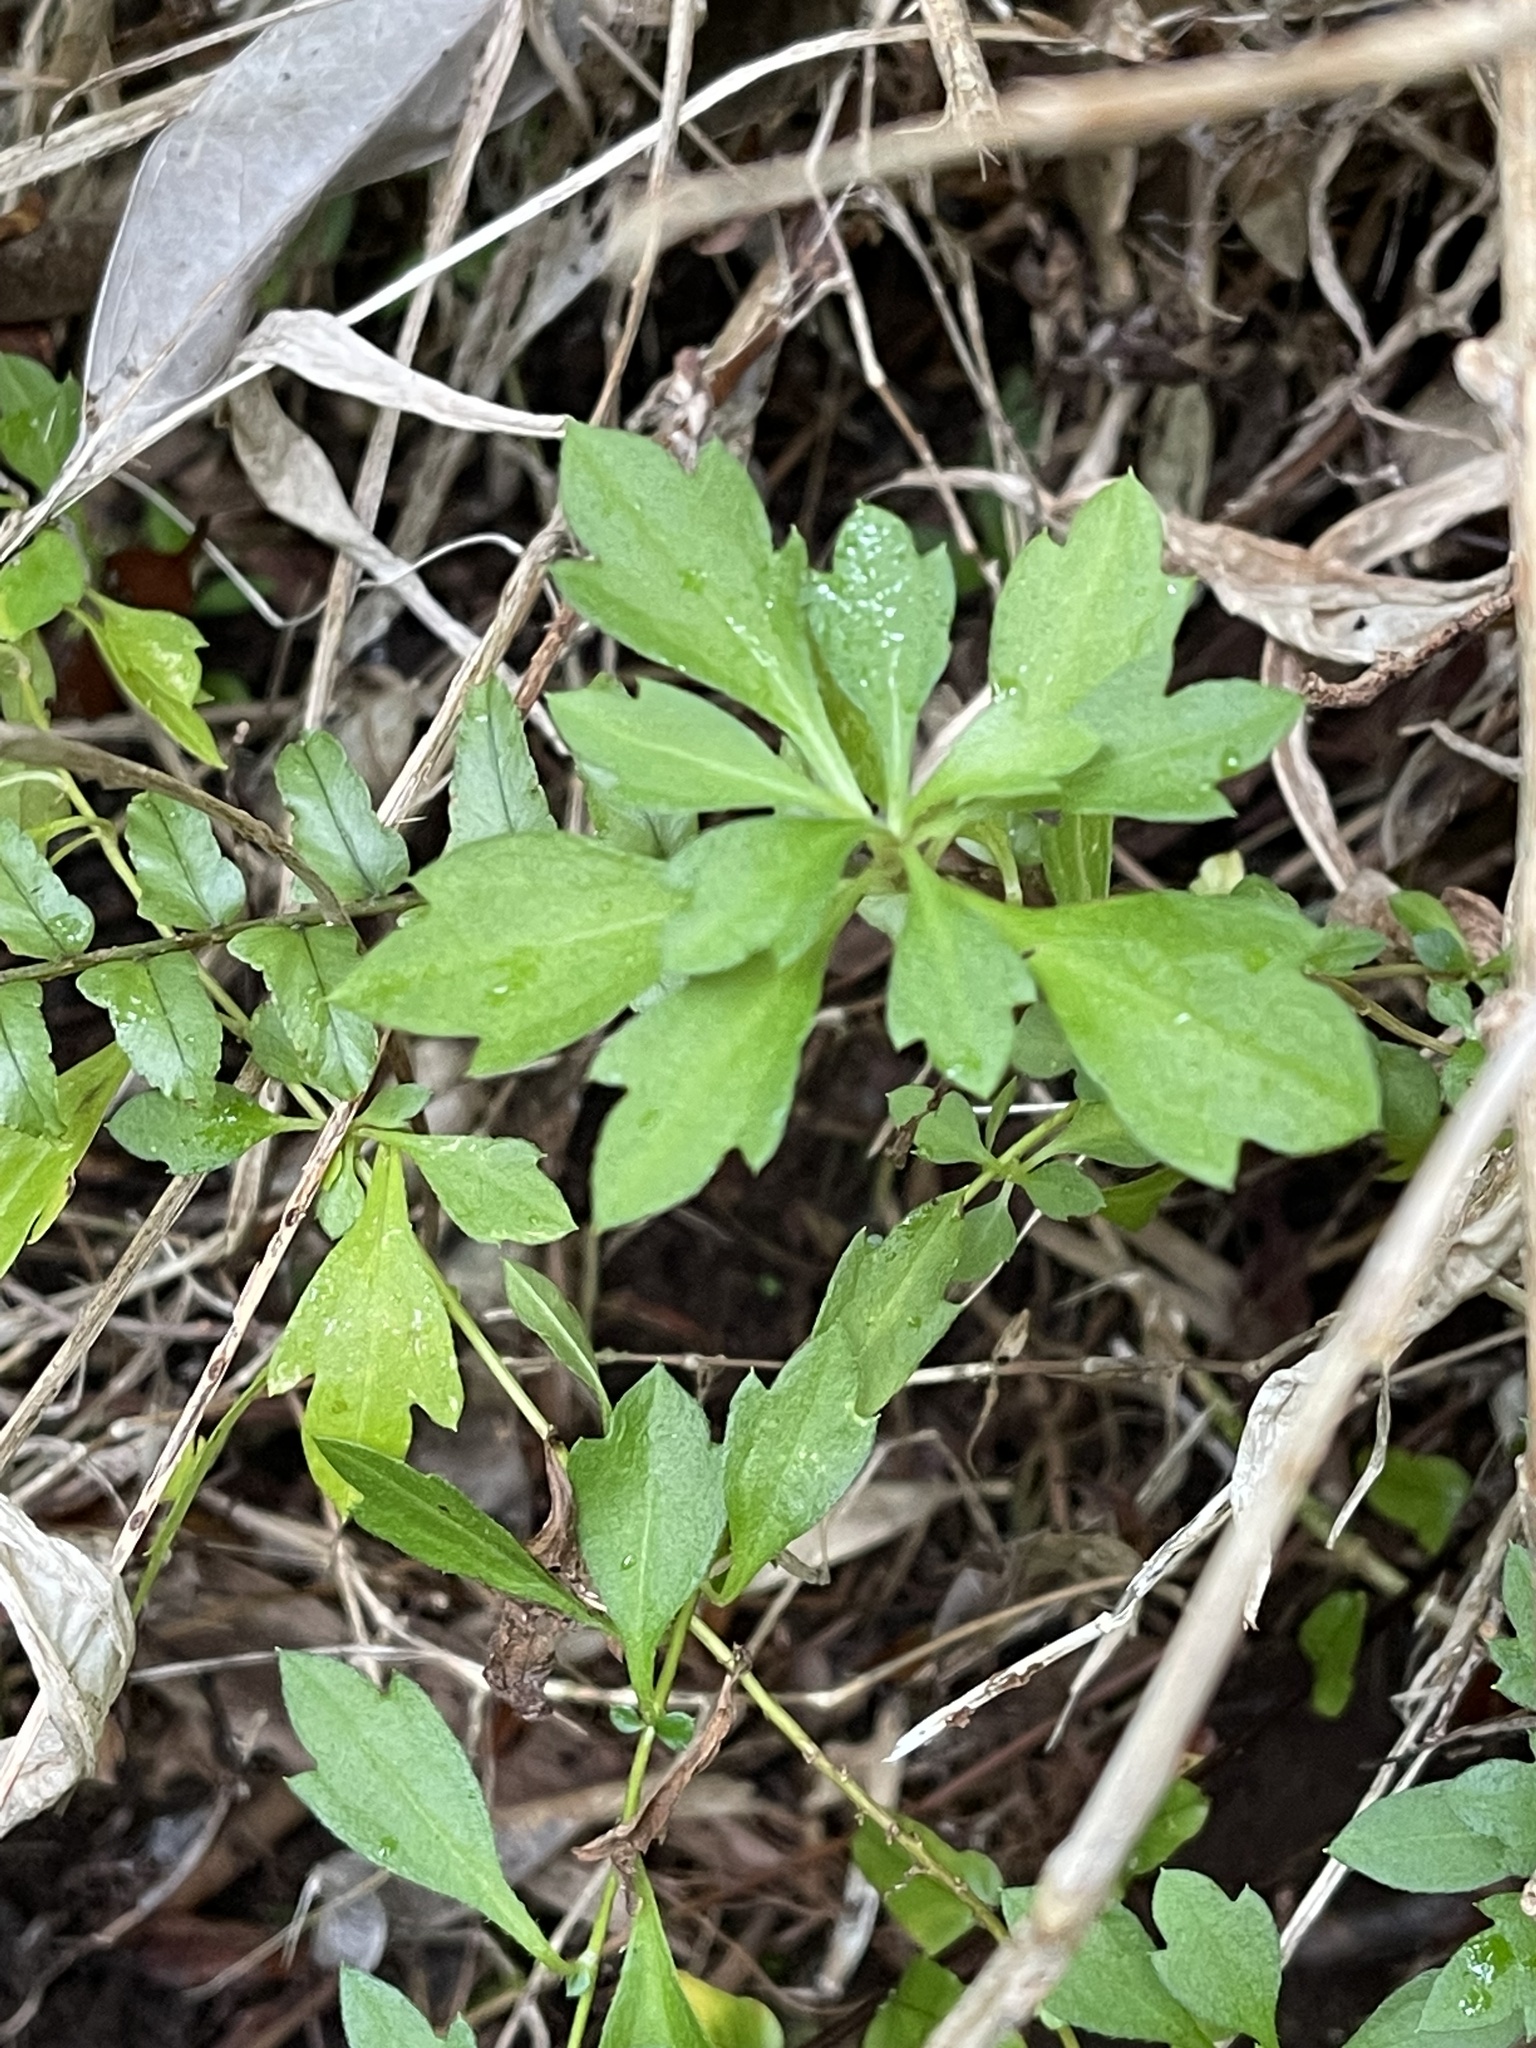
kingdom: Plantae
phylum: Tracheophyta
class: Magnoliopsida
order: Asterales
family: Asteraceae
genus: Erigeron
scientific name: Erigeron karvinskianus
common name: Mexican fleabane
